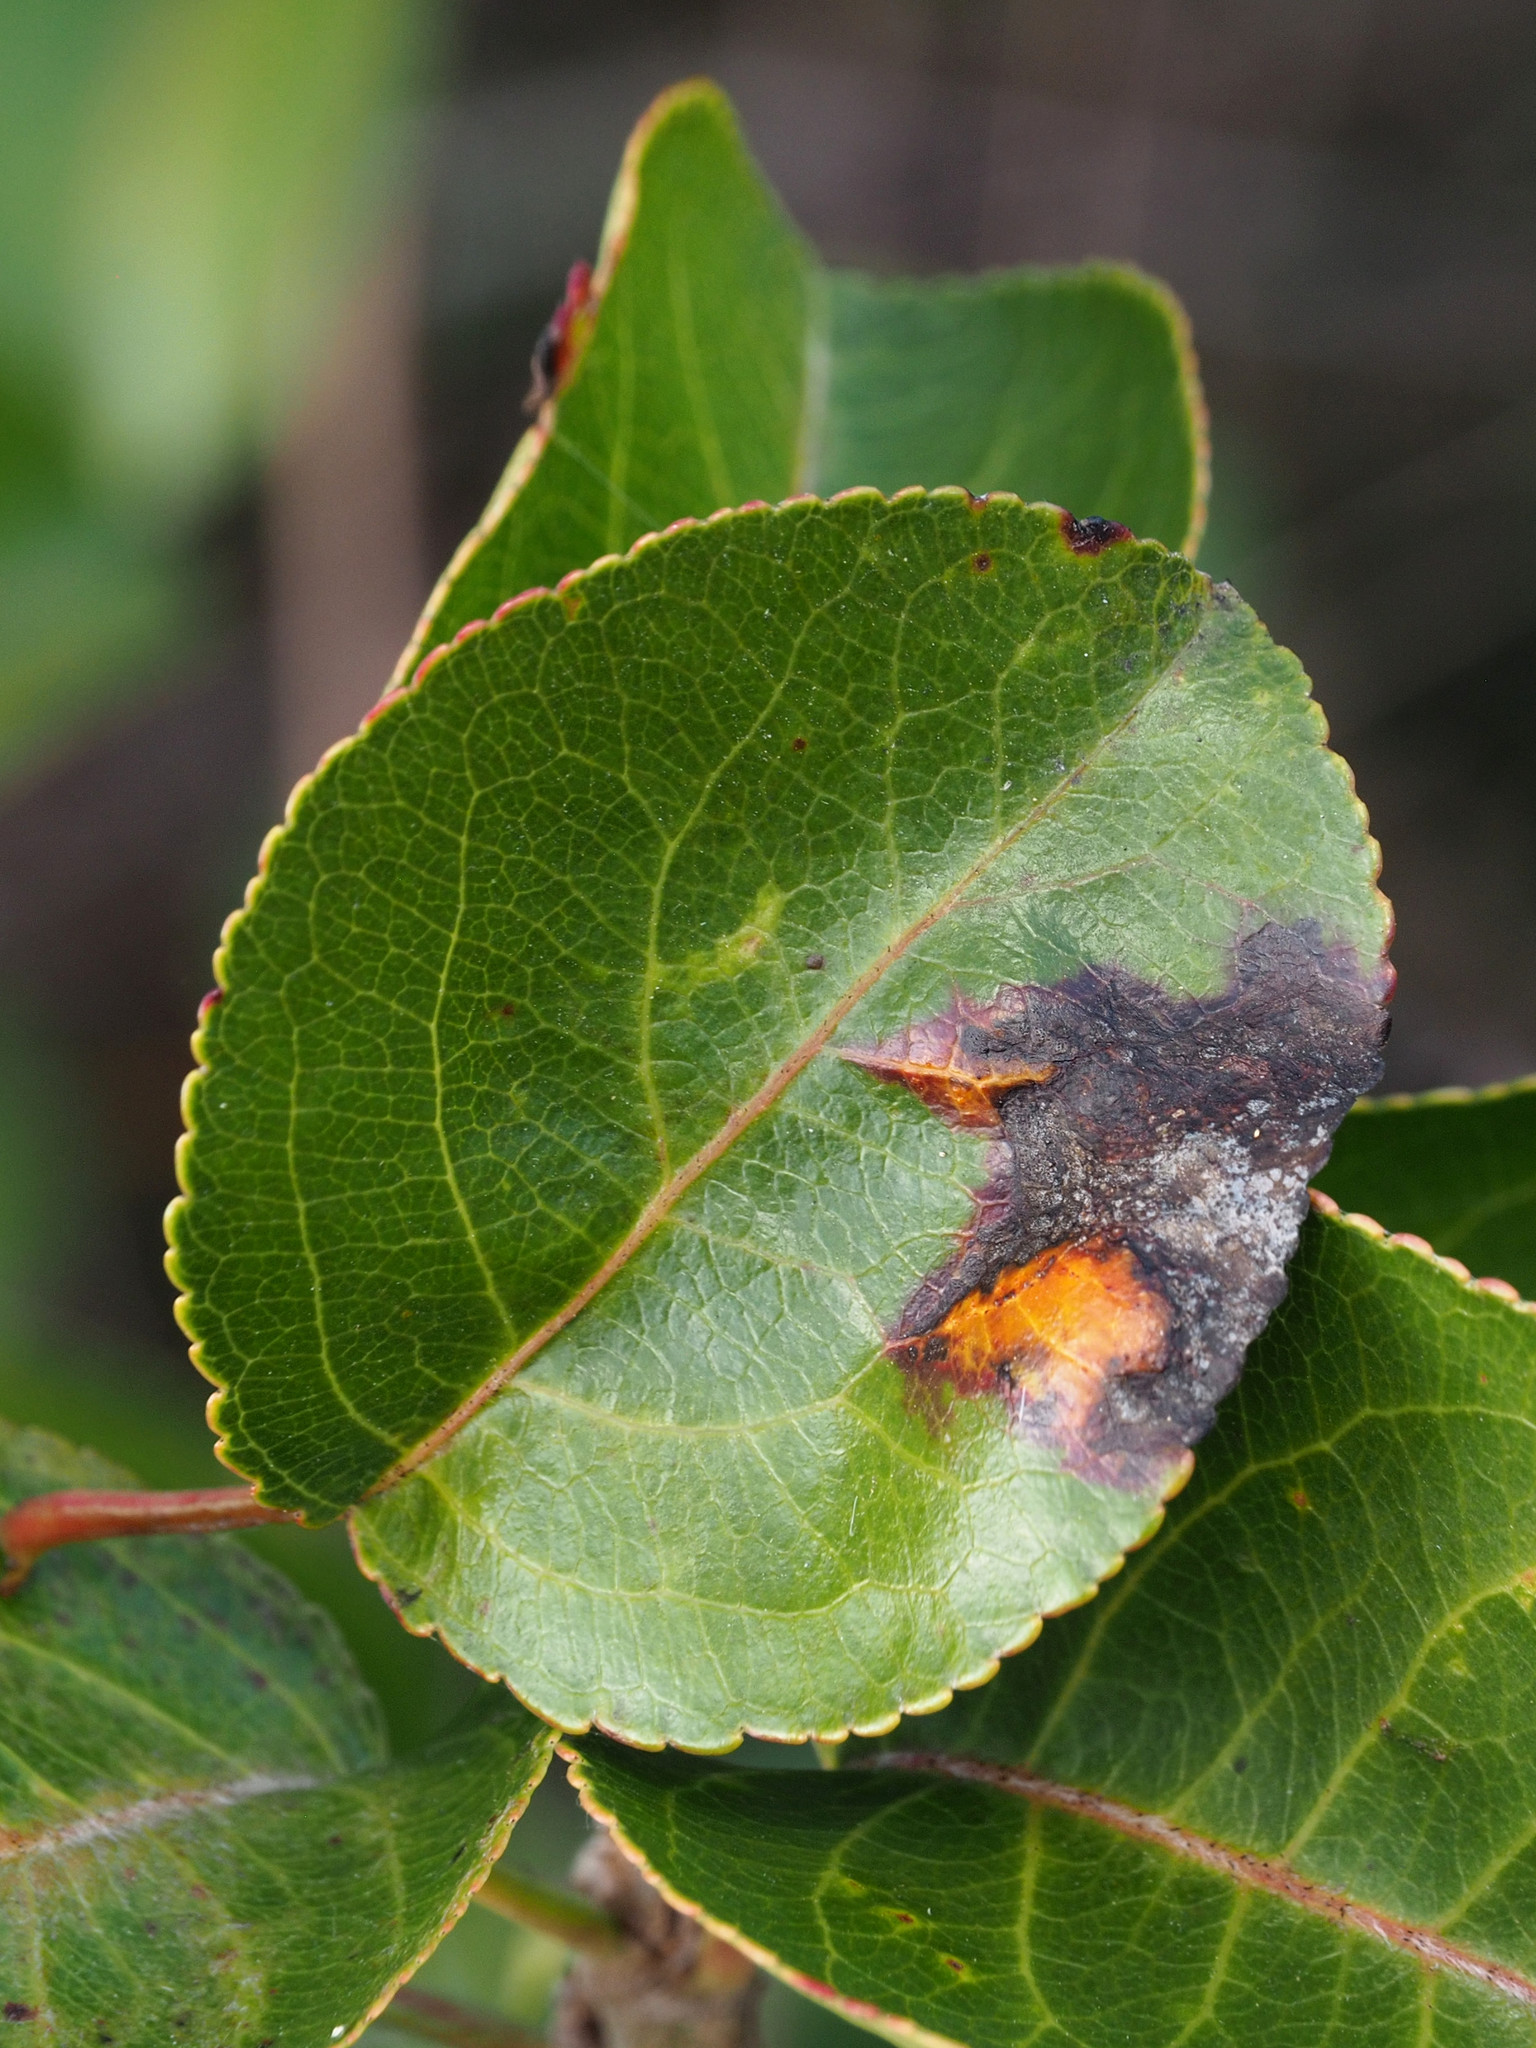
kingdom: Fungi
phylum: Basidiomycota
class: Pucciniomycetes
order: Pucciniales
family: Gymnosporangiaceae
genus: Gymnosporangium
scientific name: Gymnosporangium sabinae
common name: Pear trellis rust fungus
